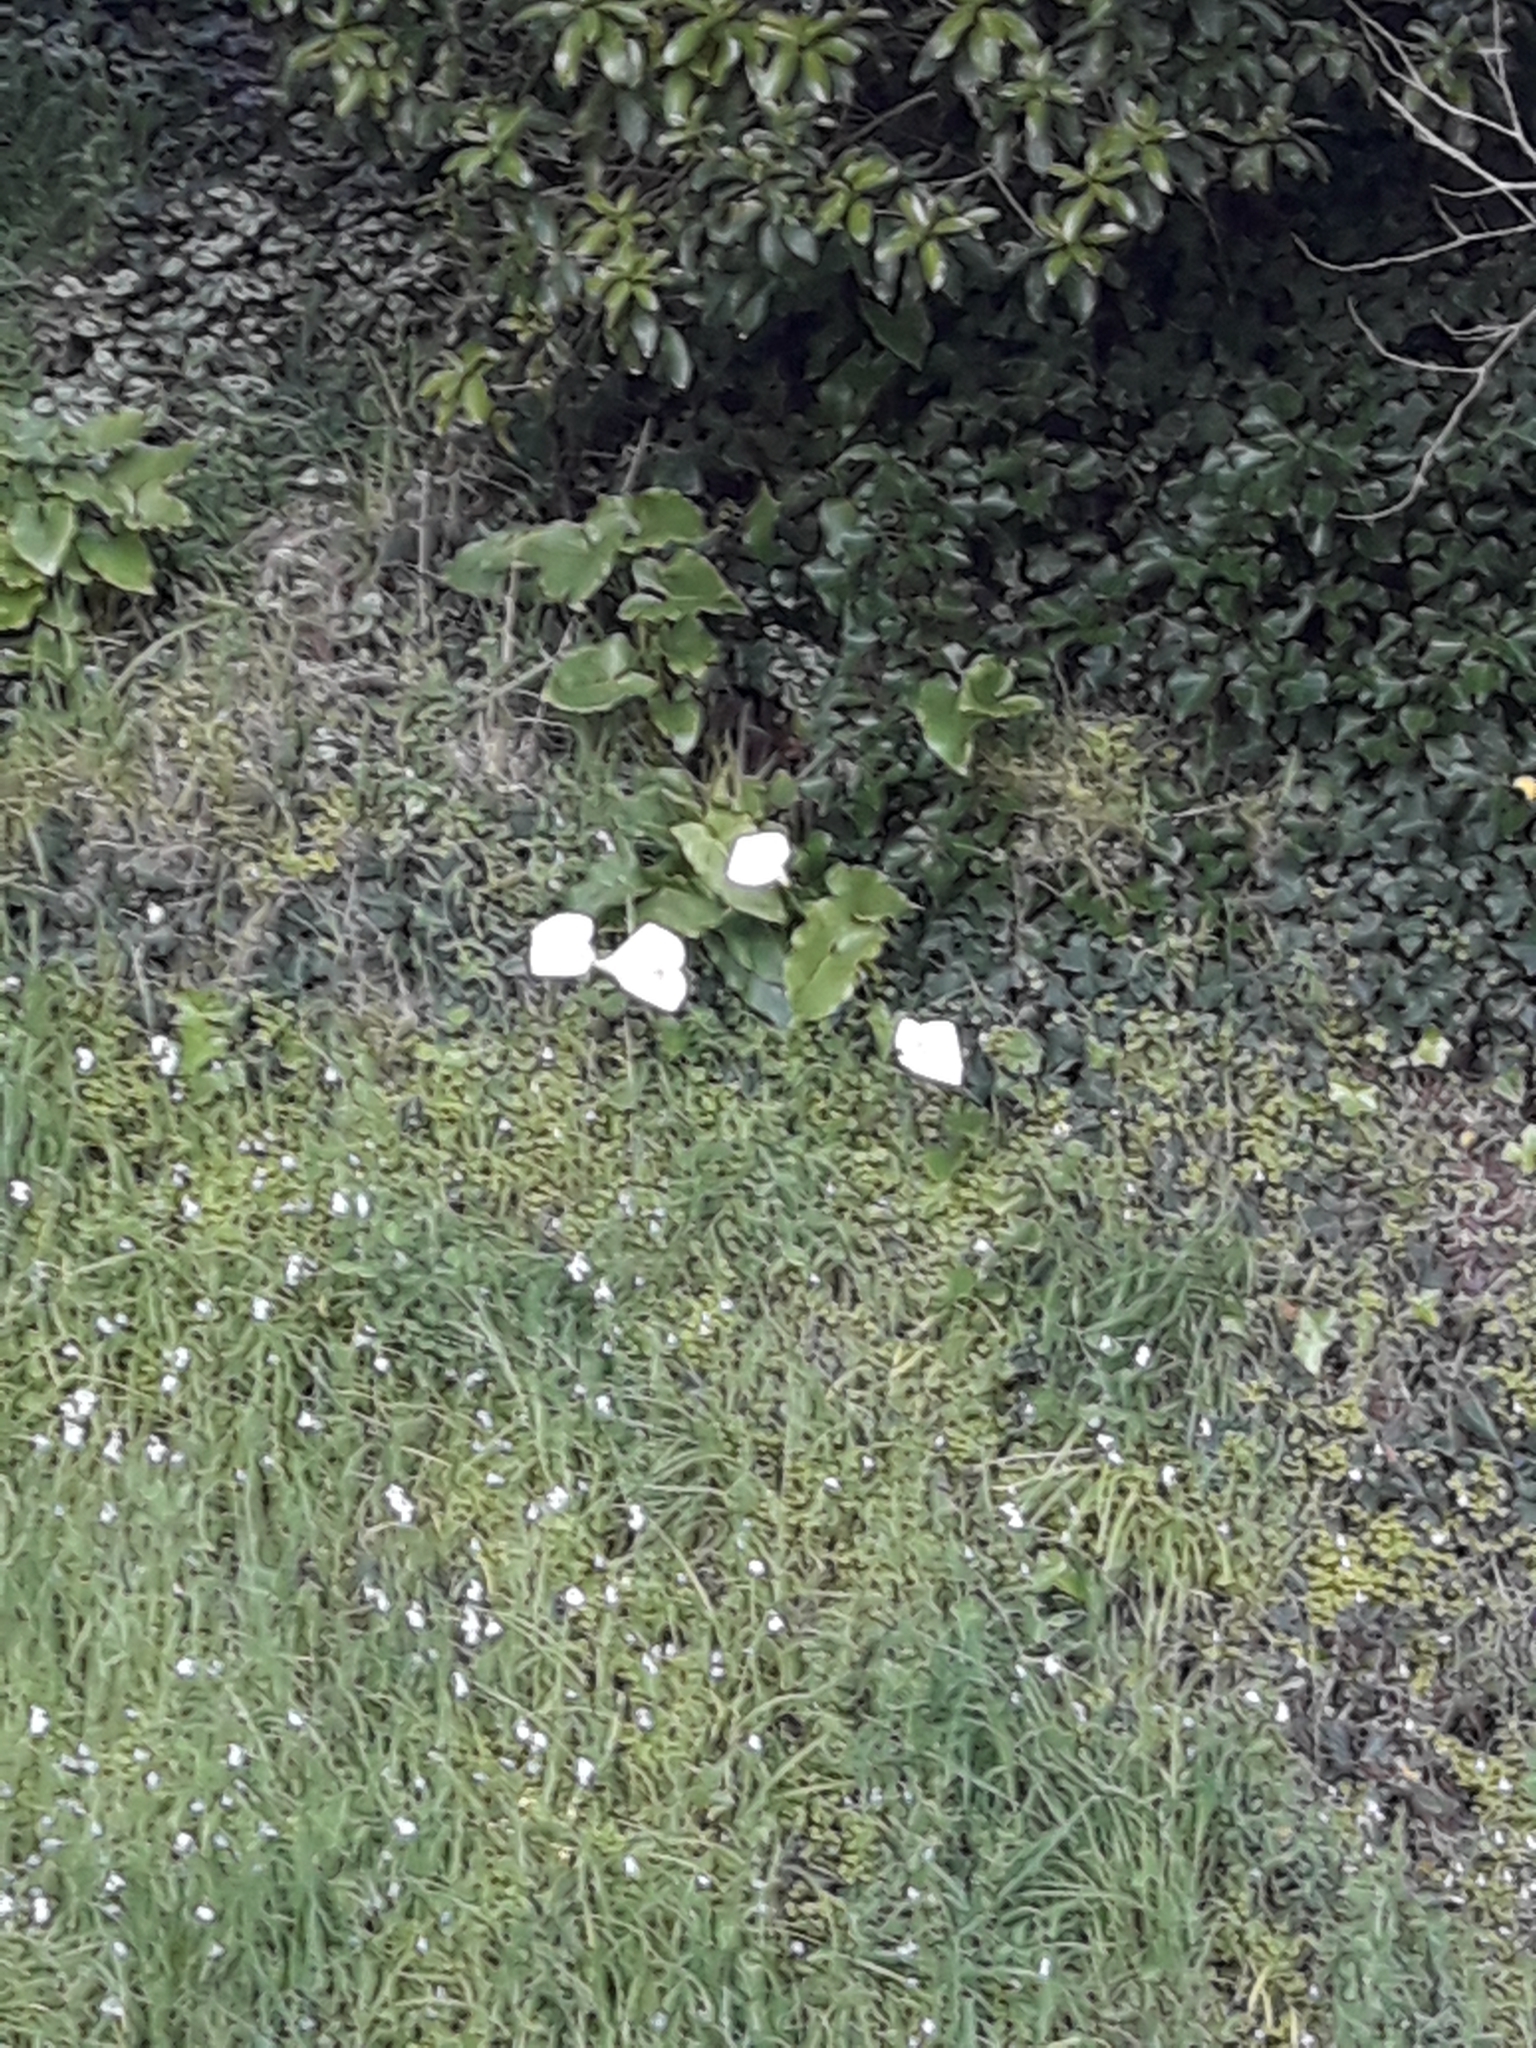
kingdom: Plantae
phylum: Tracheophyta
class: Liliopsida
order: Alismatales
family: Araceae
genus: Zantedeschia
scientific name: Zantedeschia aethiopica
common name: Altar-lily
